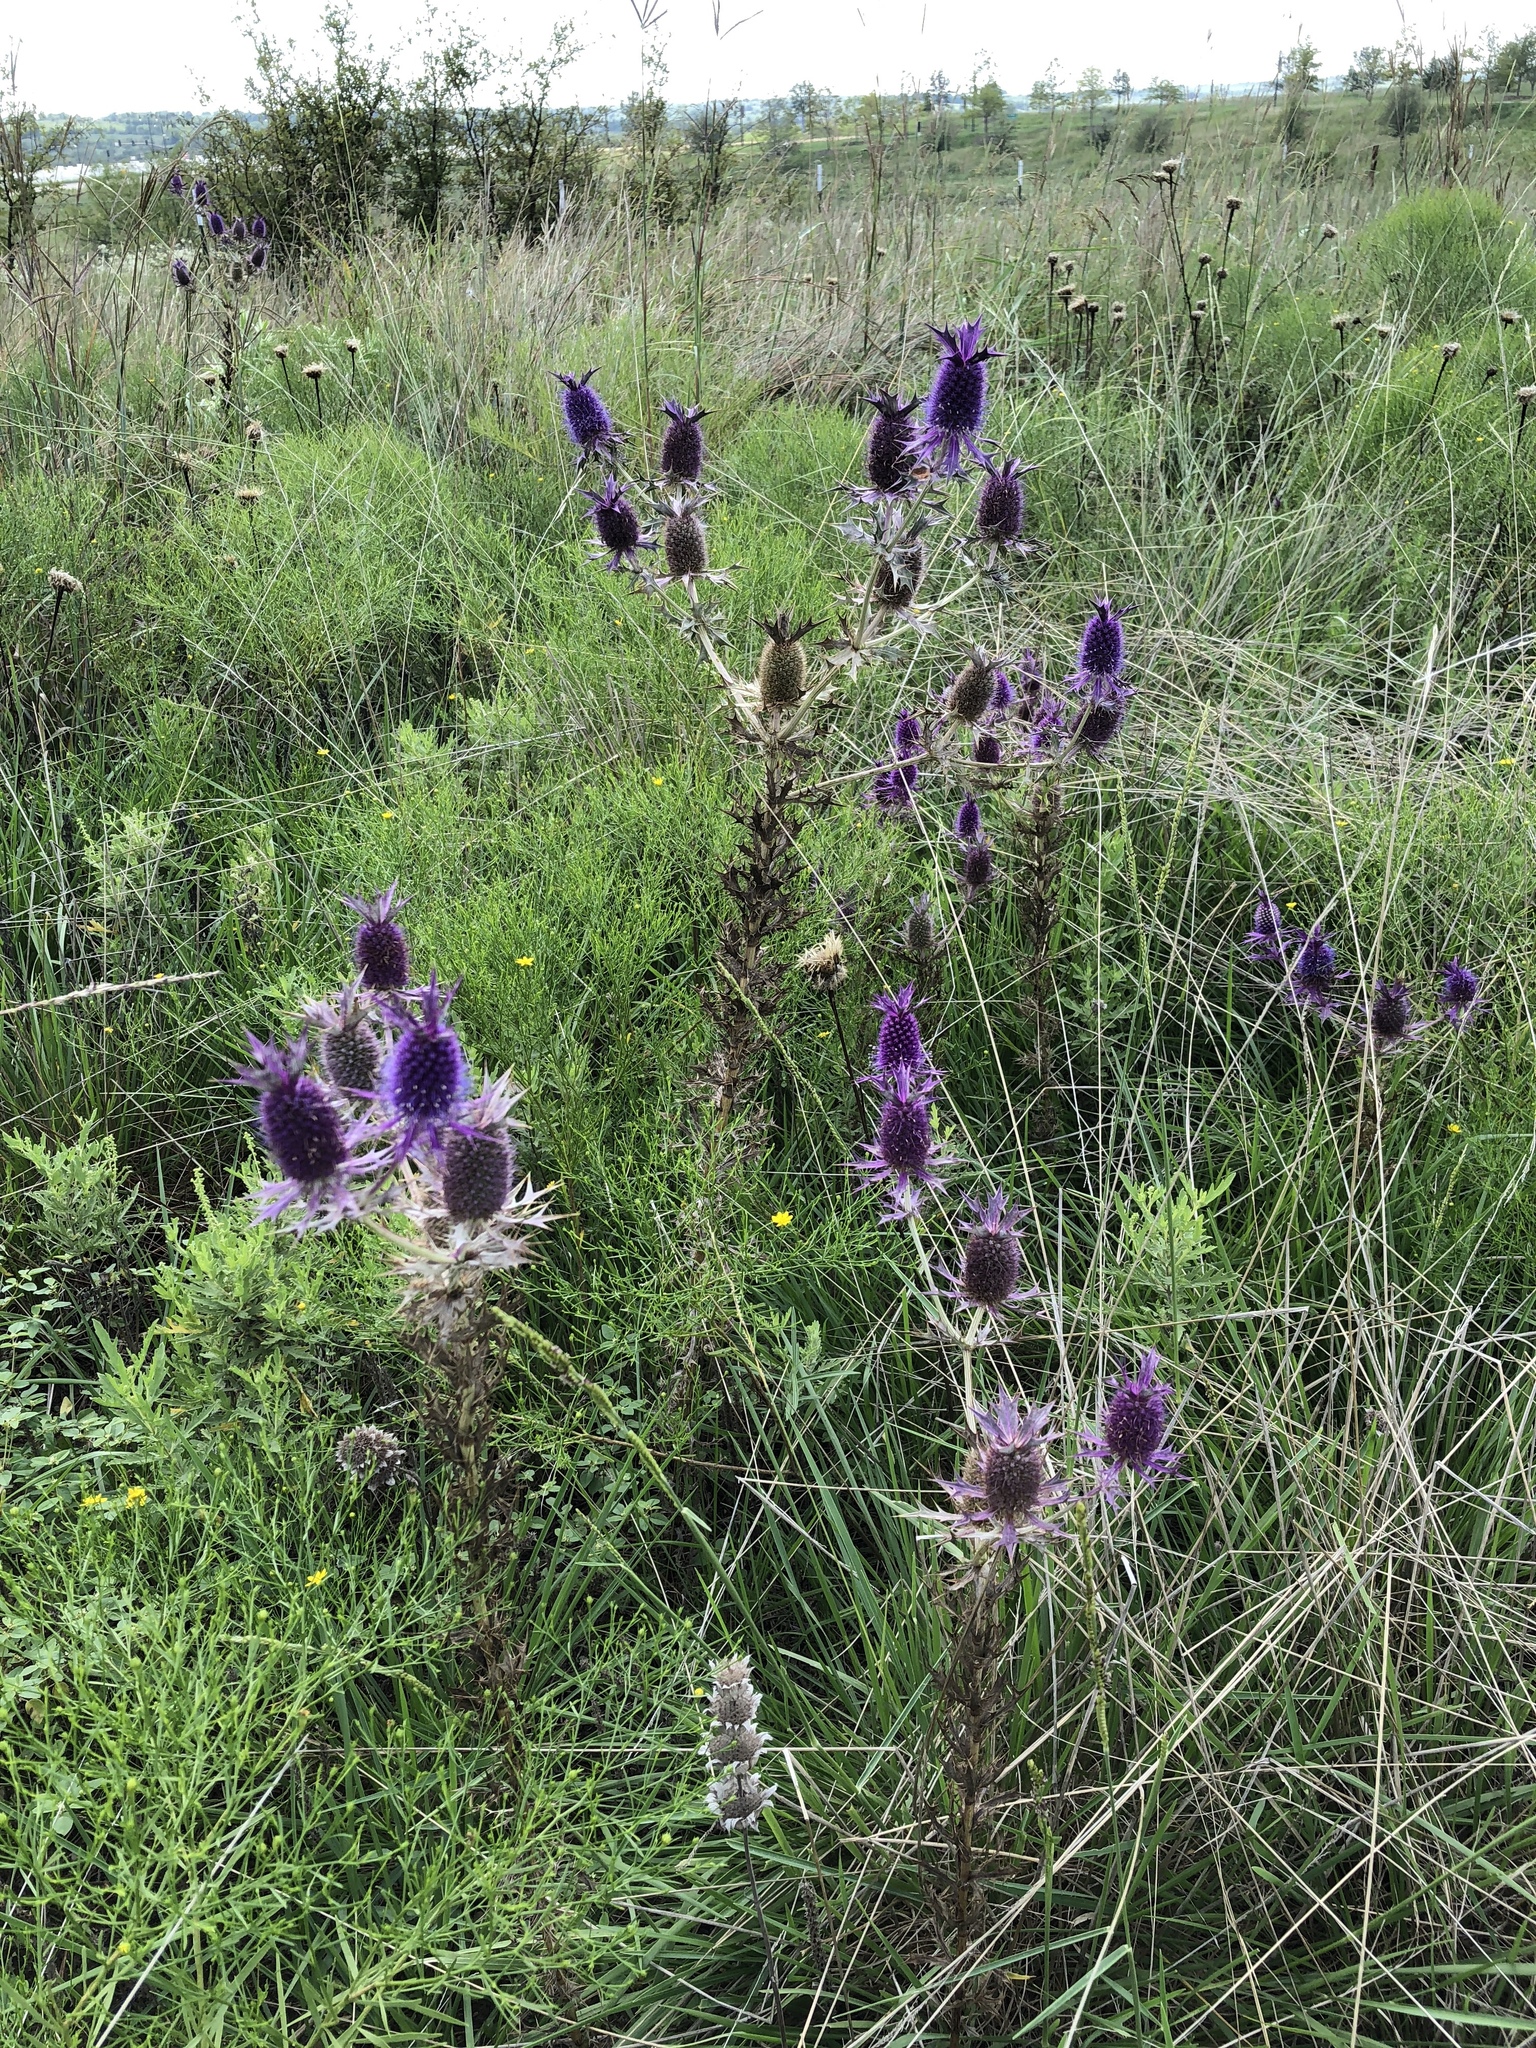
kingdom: Plantae
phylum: Tracheophyta
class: Magnoliopsida
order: Apiales
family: Apiaceae
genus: Eryngium
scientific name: Eryngium leavenworthii
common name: Leavenworth's eryngo
